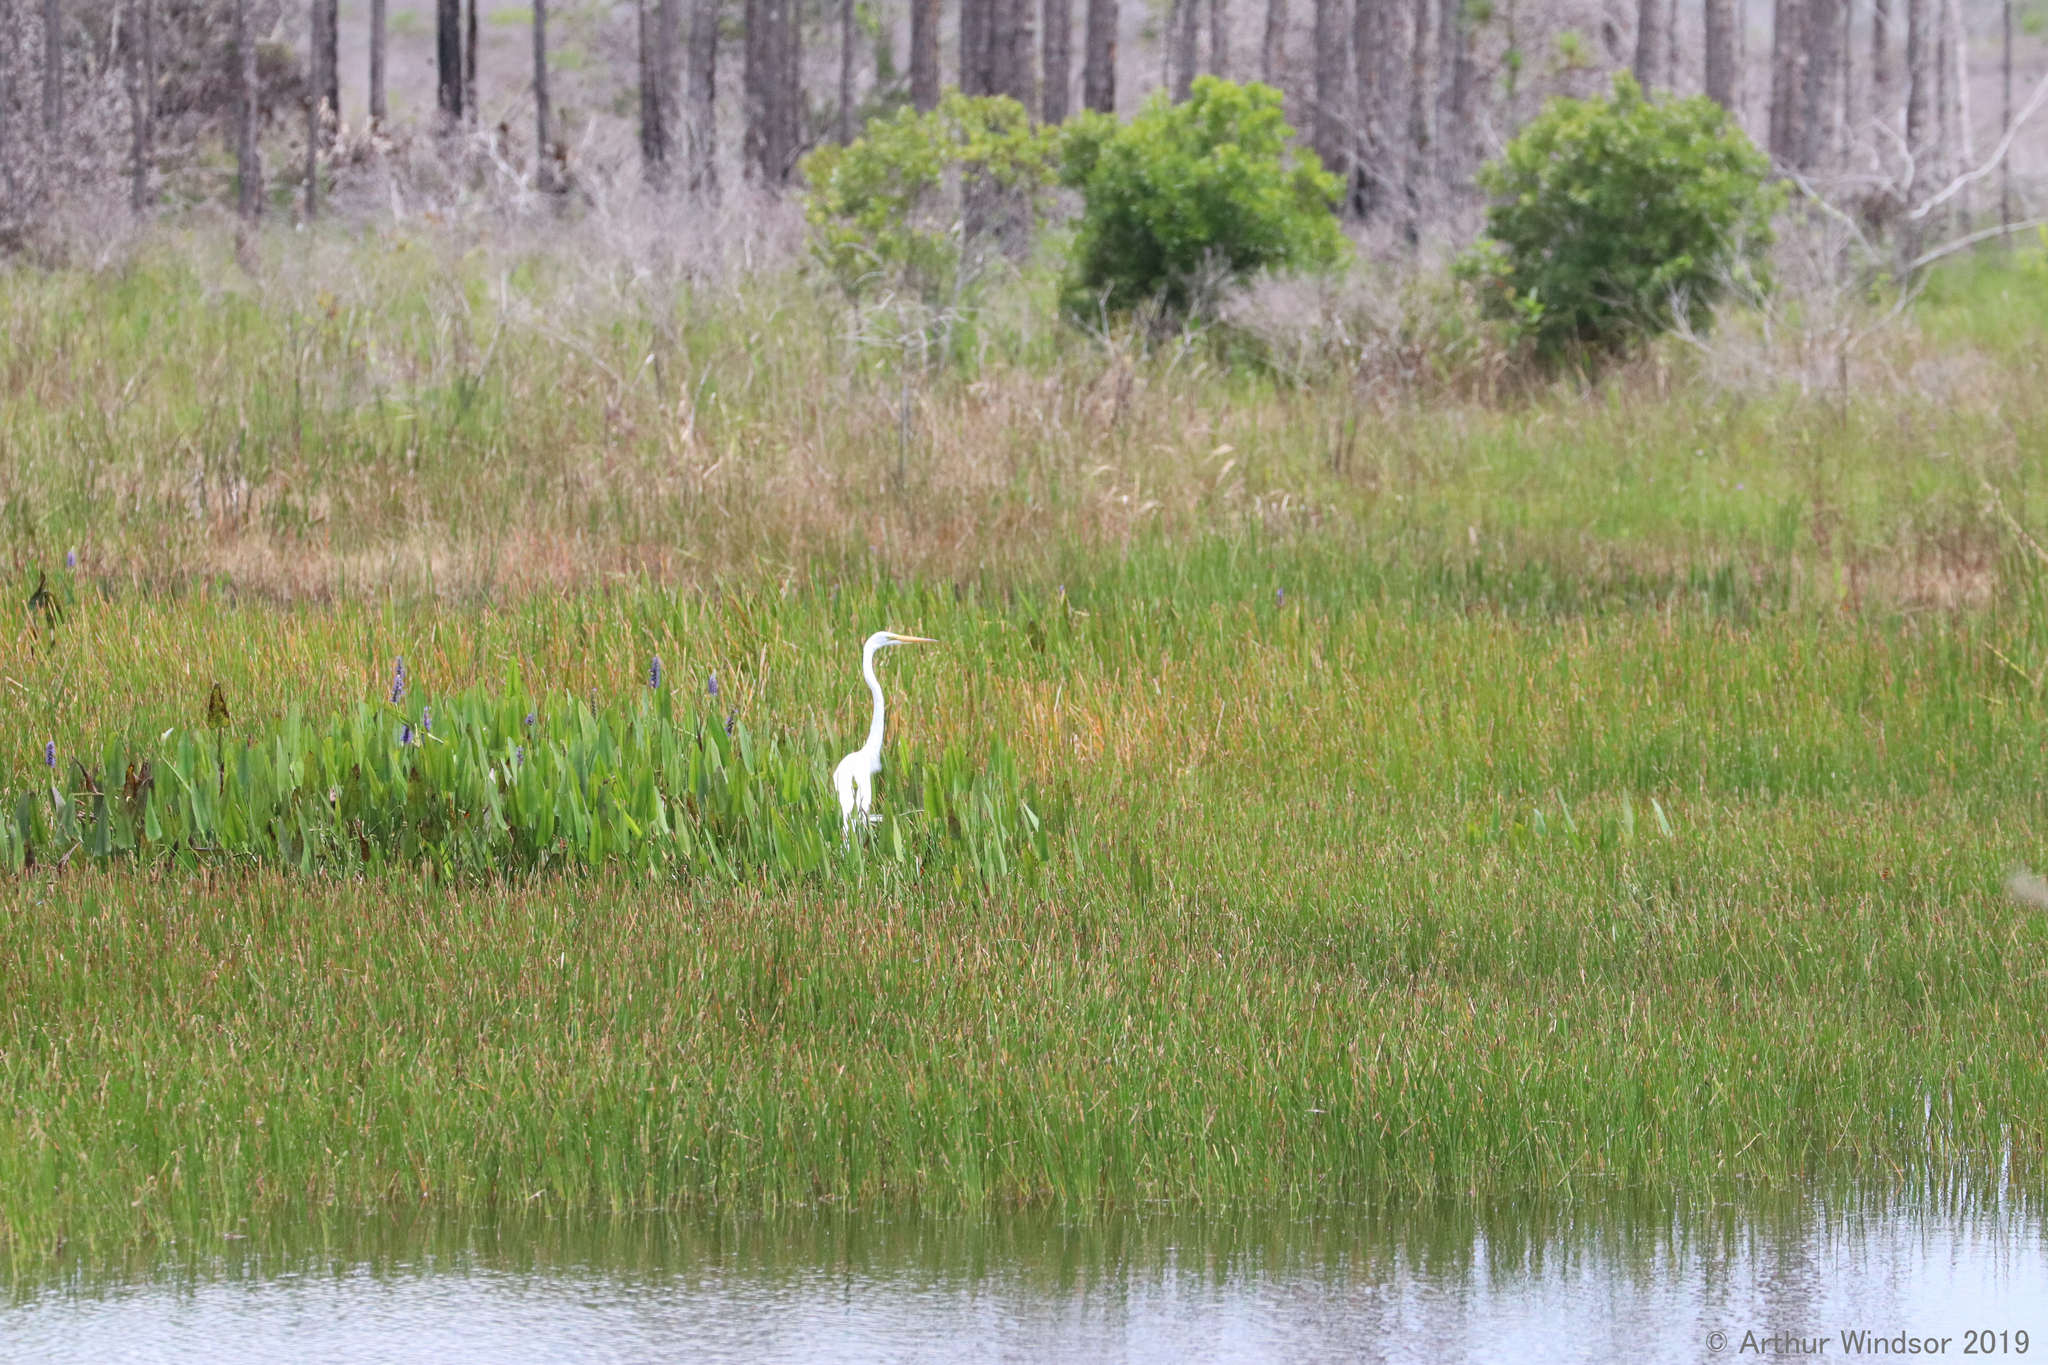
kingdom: Animalia
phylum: Chordata
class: Aves
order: Pelecaniformes
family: Ardeidae
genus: Ardea
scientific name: Ardea alba
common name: Great egret
